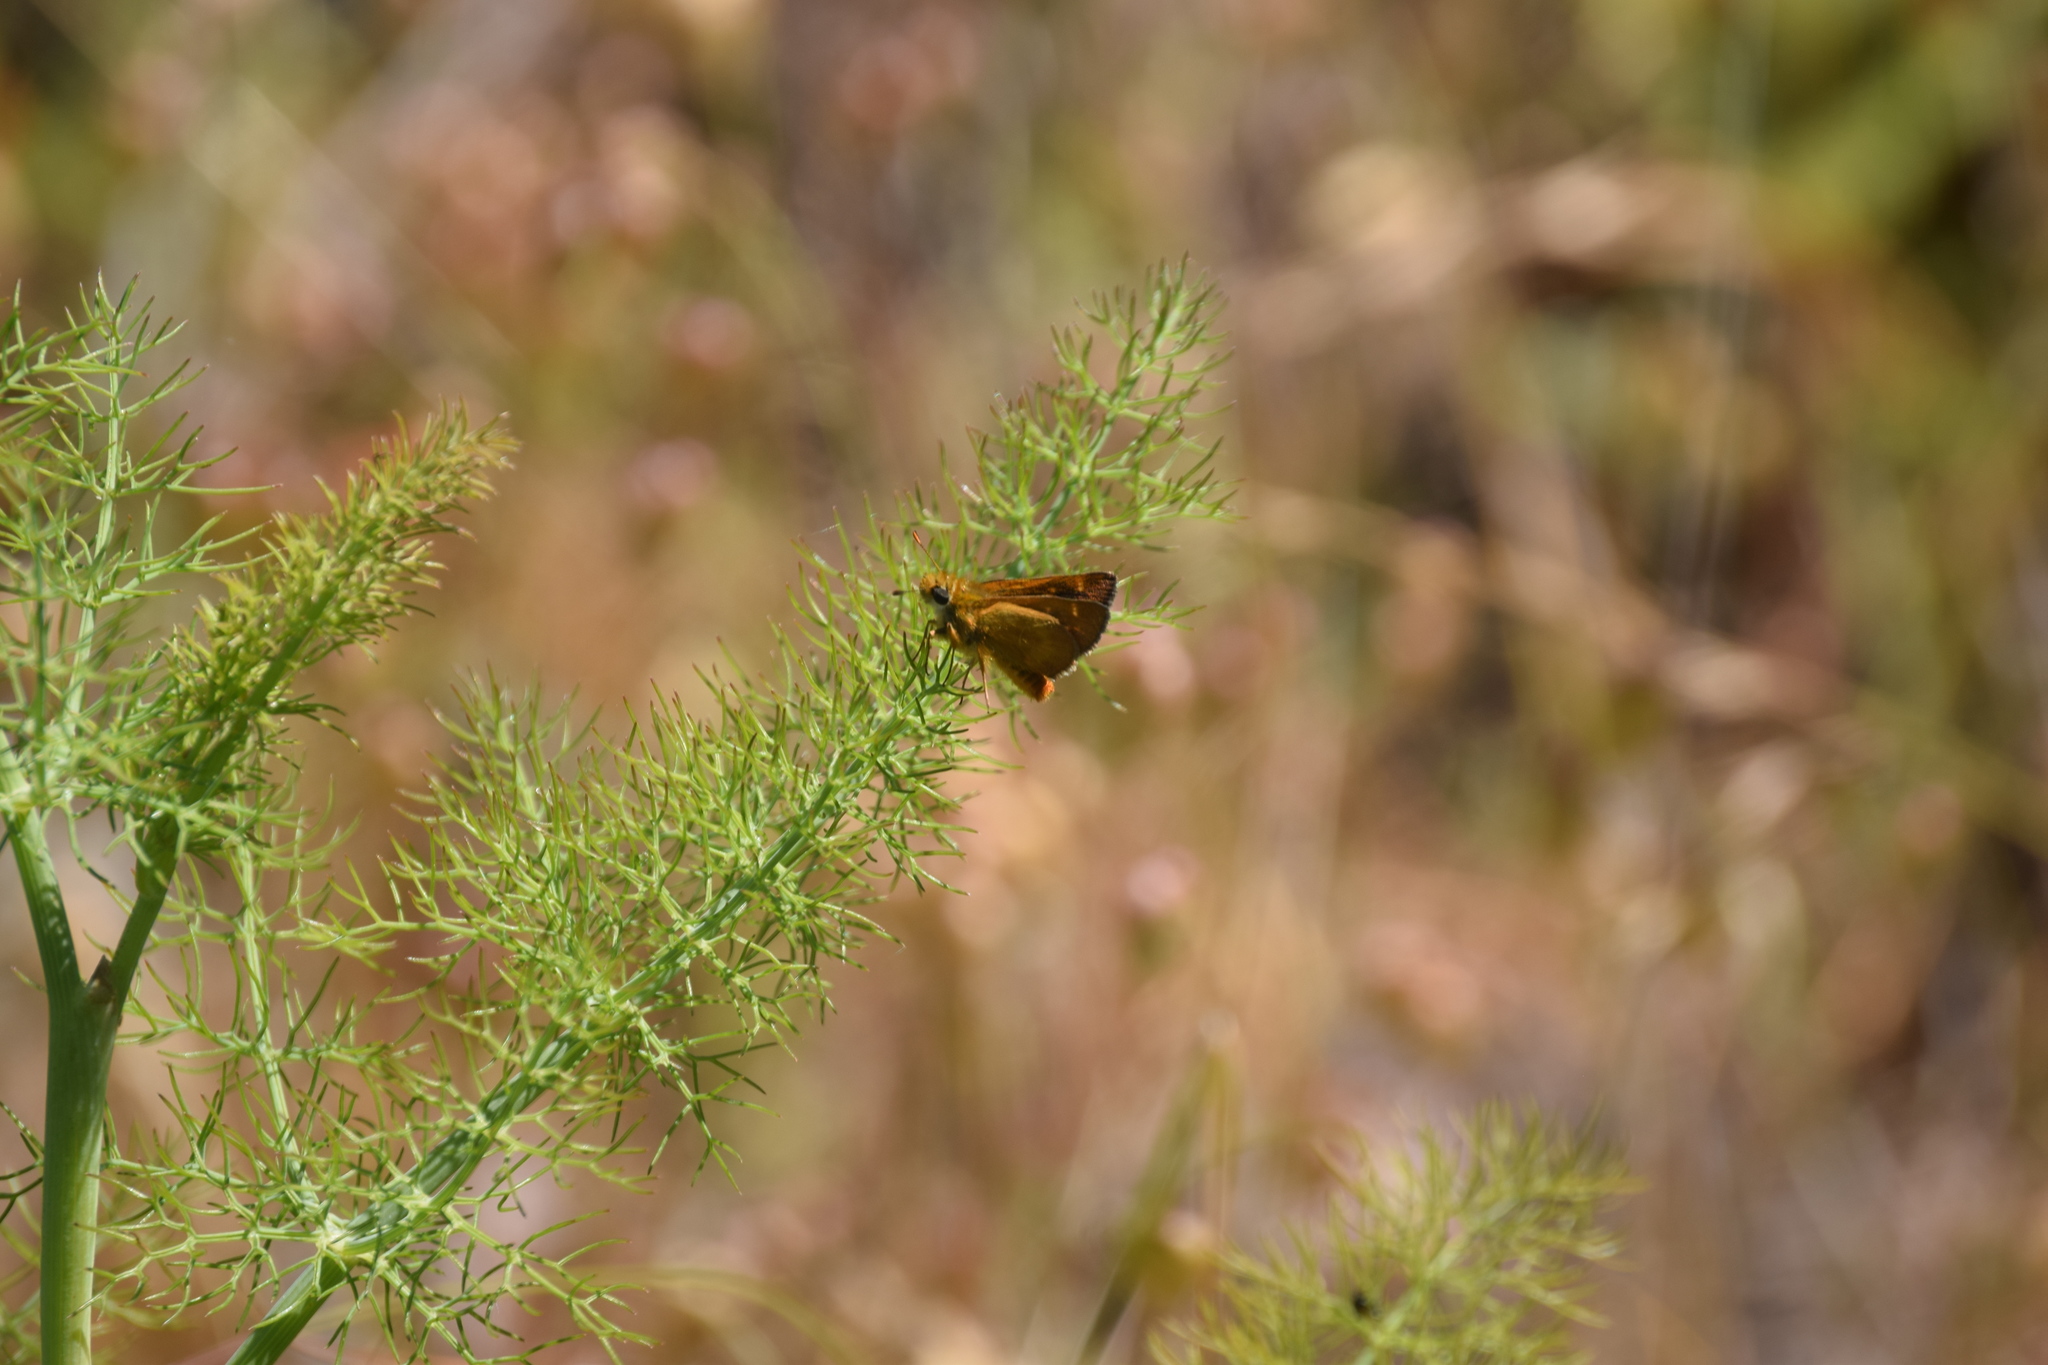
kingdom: Animalia
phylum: Arthropoda
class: Insecta
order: Lepidoptera
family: Hesperiidae
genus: Ochlodes
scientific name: Ochlodes agricola
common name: Rural skipper
